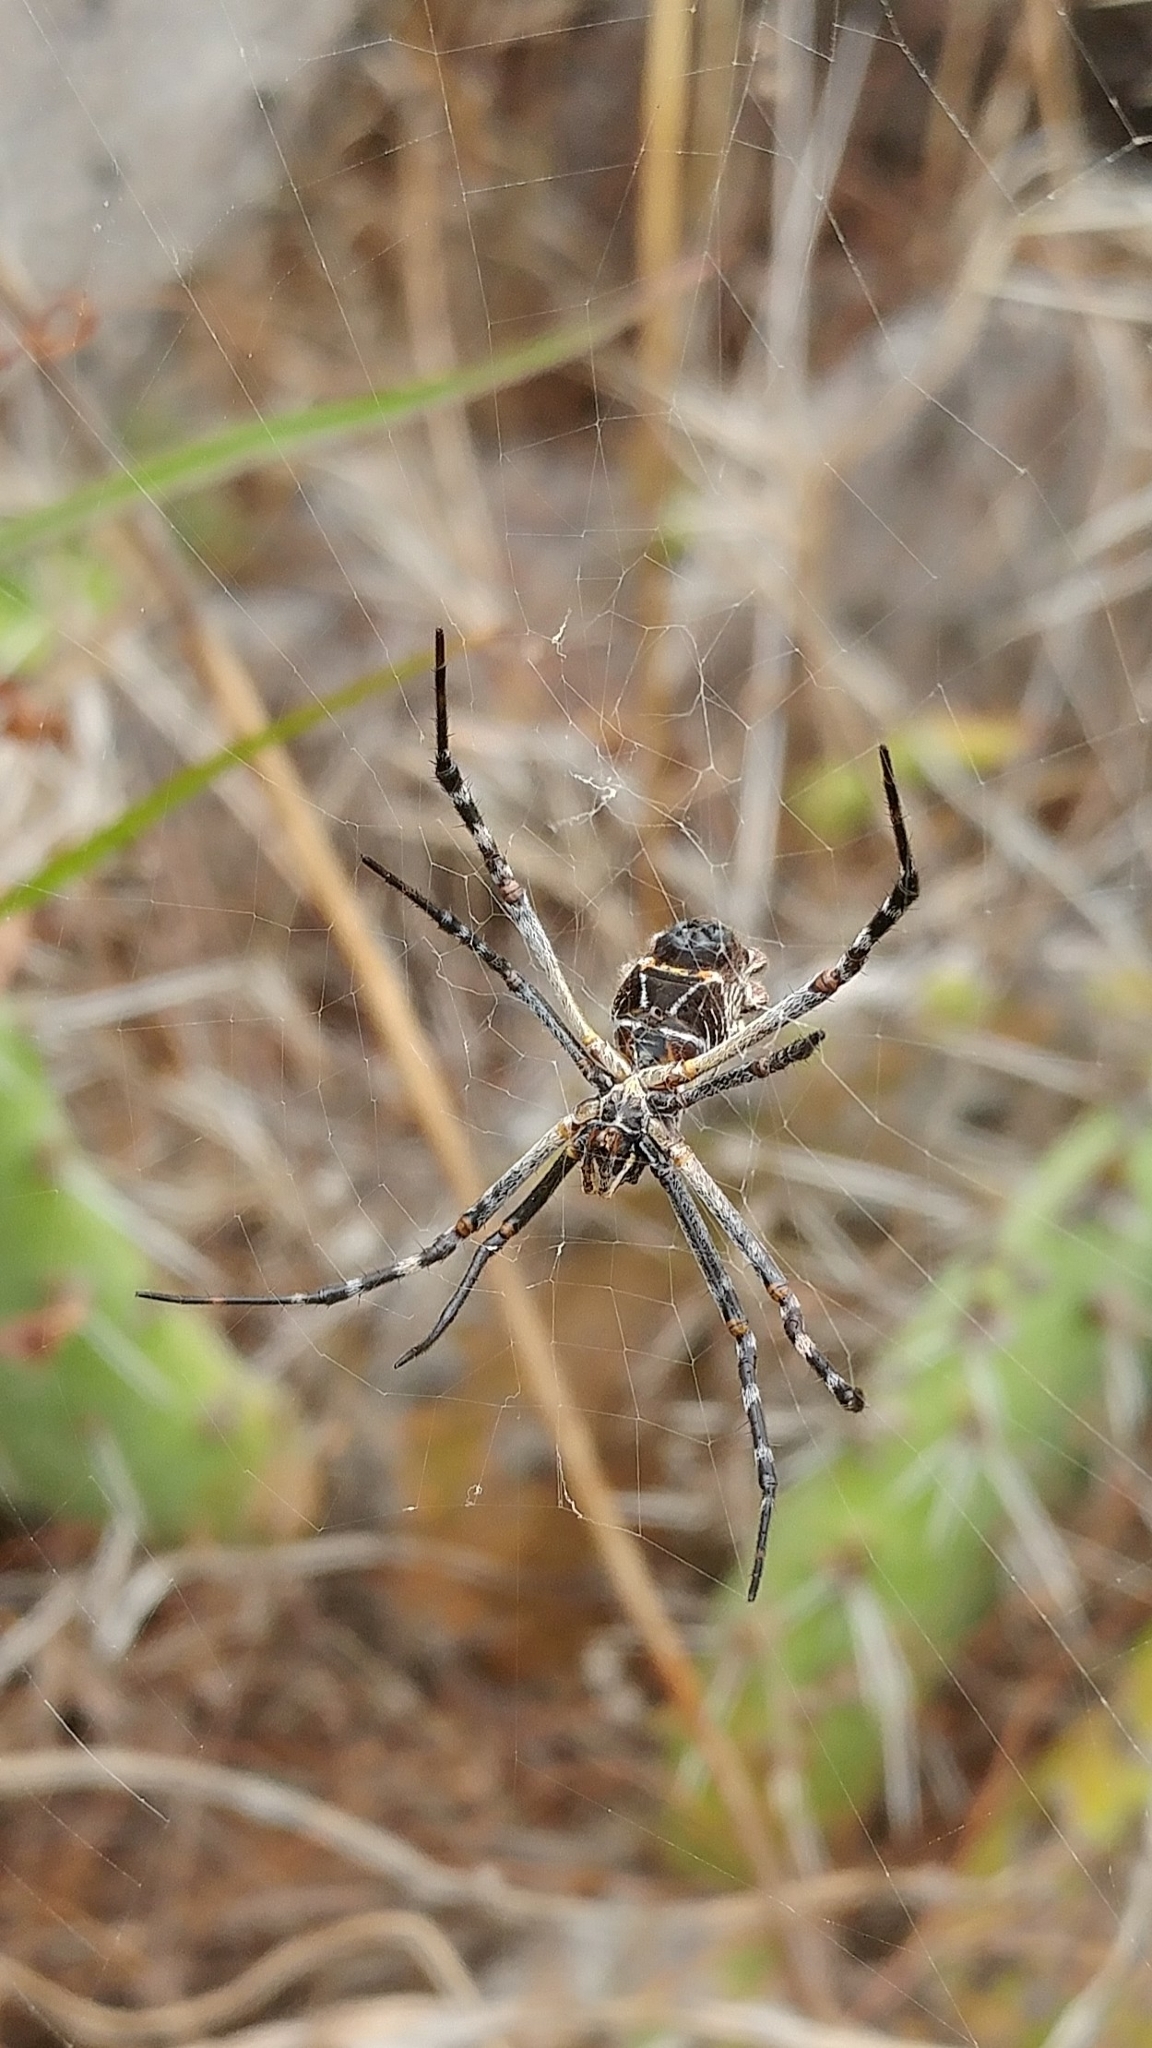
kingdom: Animalia
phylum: Arthropoda
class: Arachnida
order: Araneae
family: Araneidae
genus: Argiope
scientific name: Argiope argentata
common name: Orb weavers
